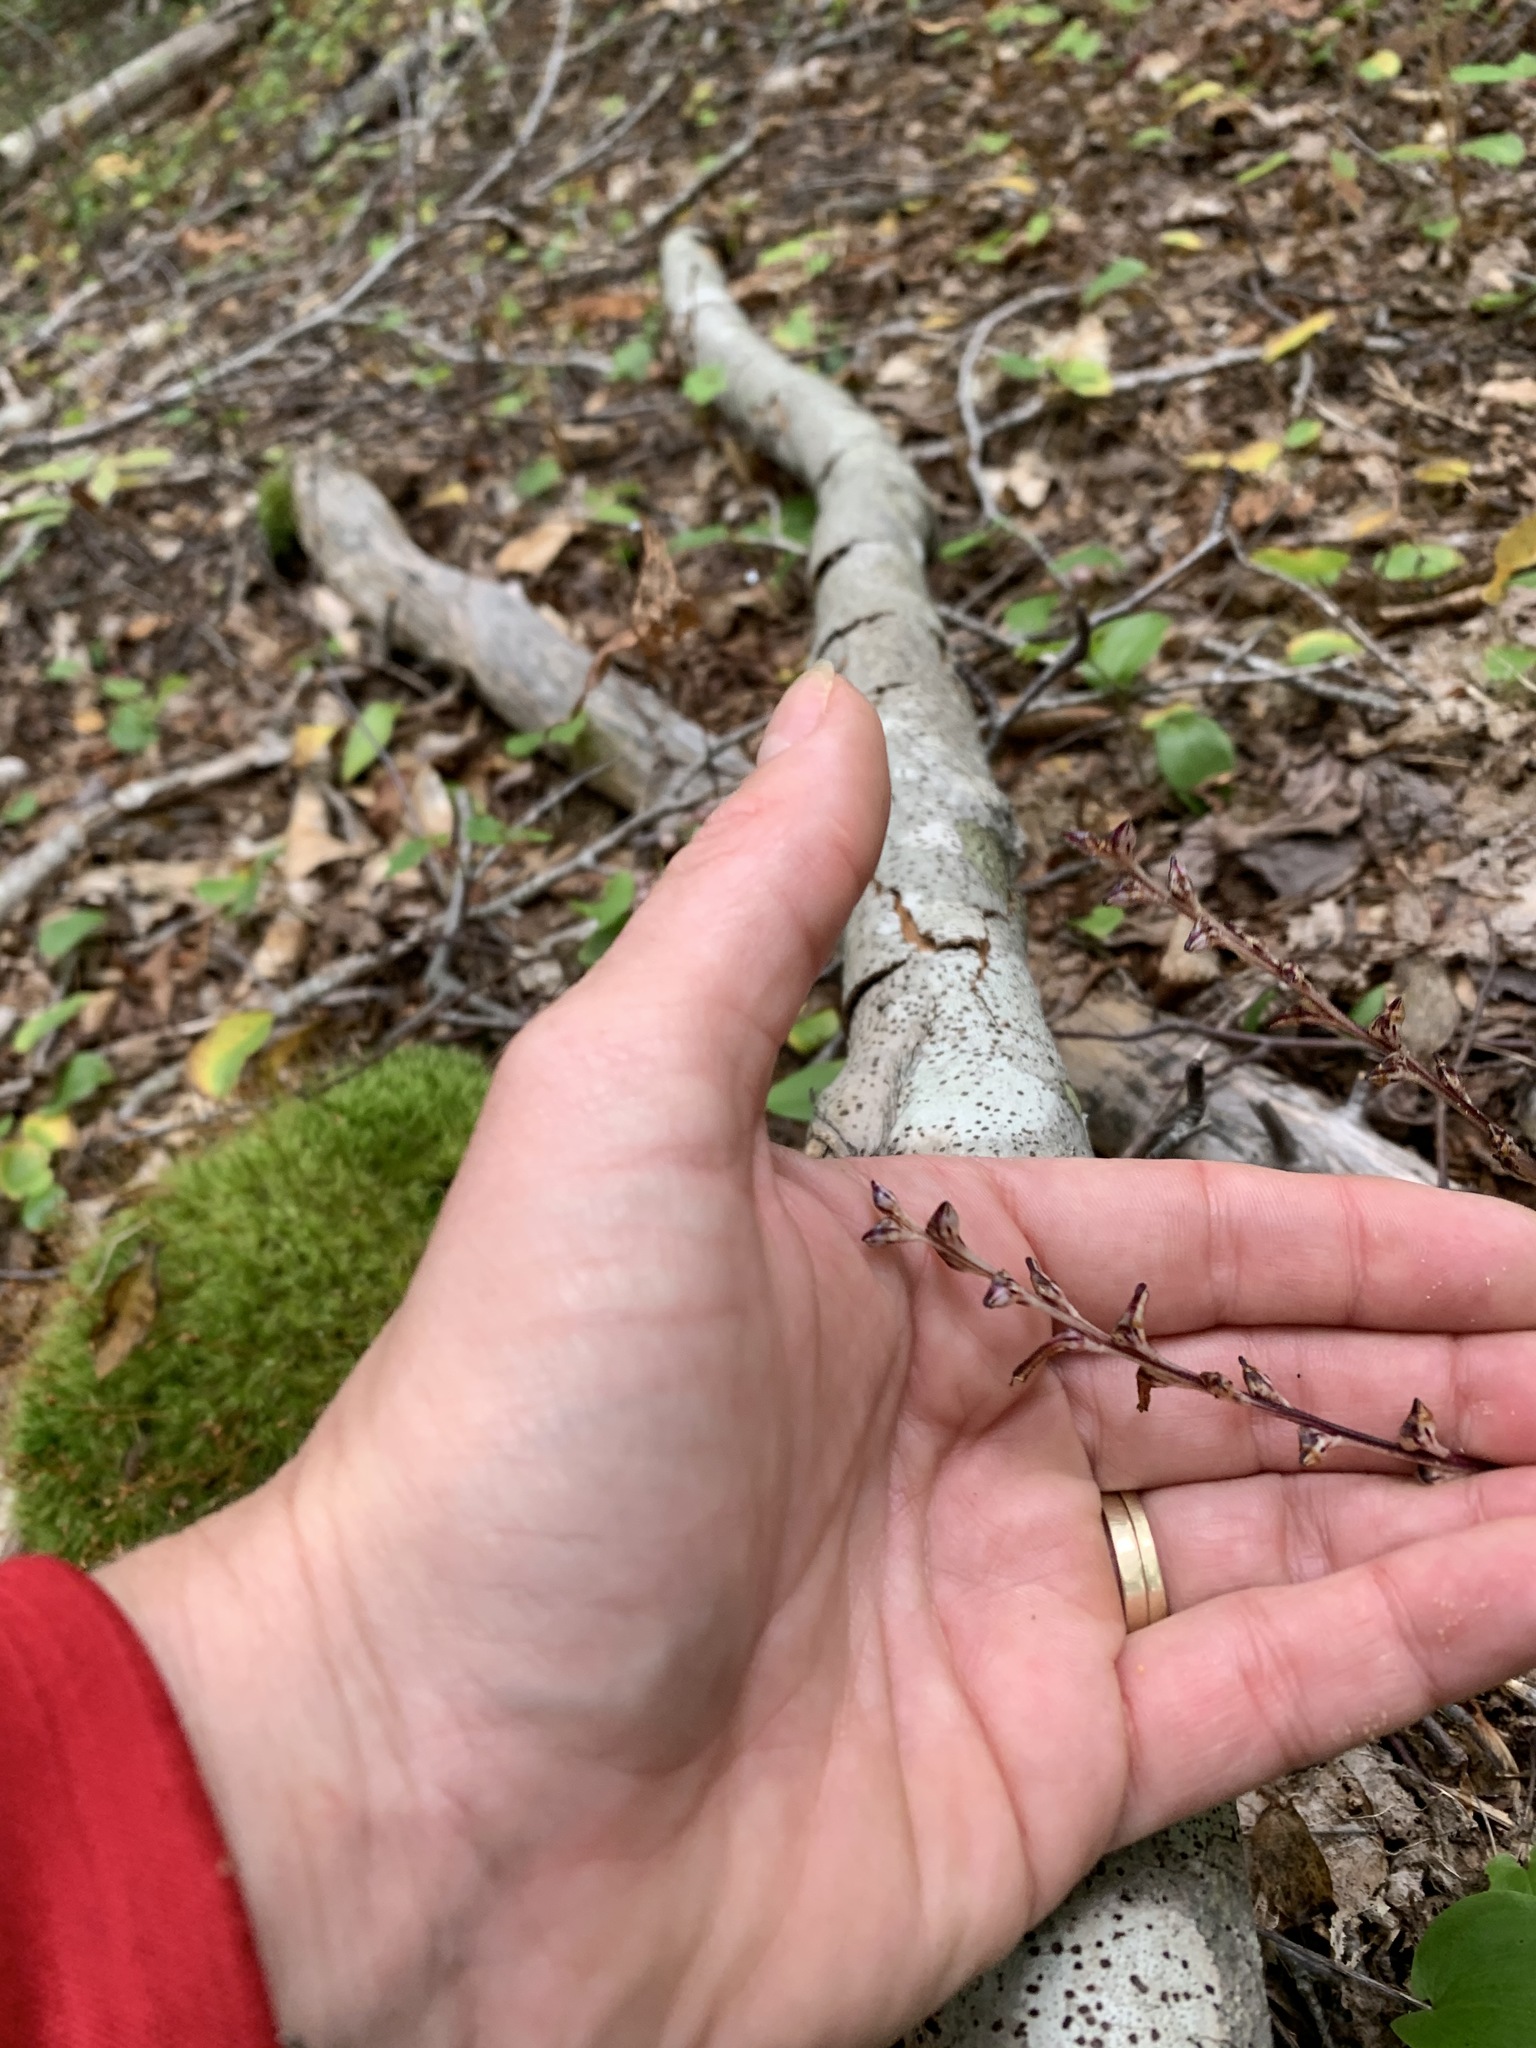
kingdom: Plantae
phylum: Tracheophyta
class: Magnoliopsida
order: Lamiales
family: Orobanchaceae
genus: Epifagus
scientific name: Epifagus virginiana
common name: Beechdrops
